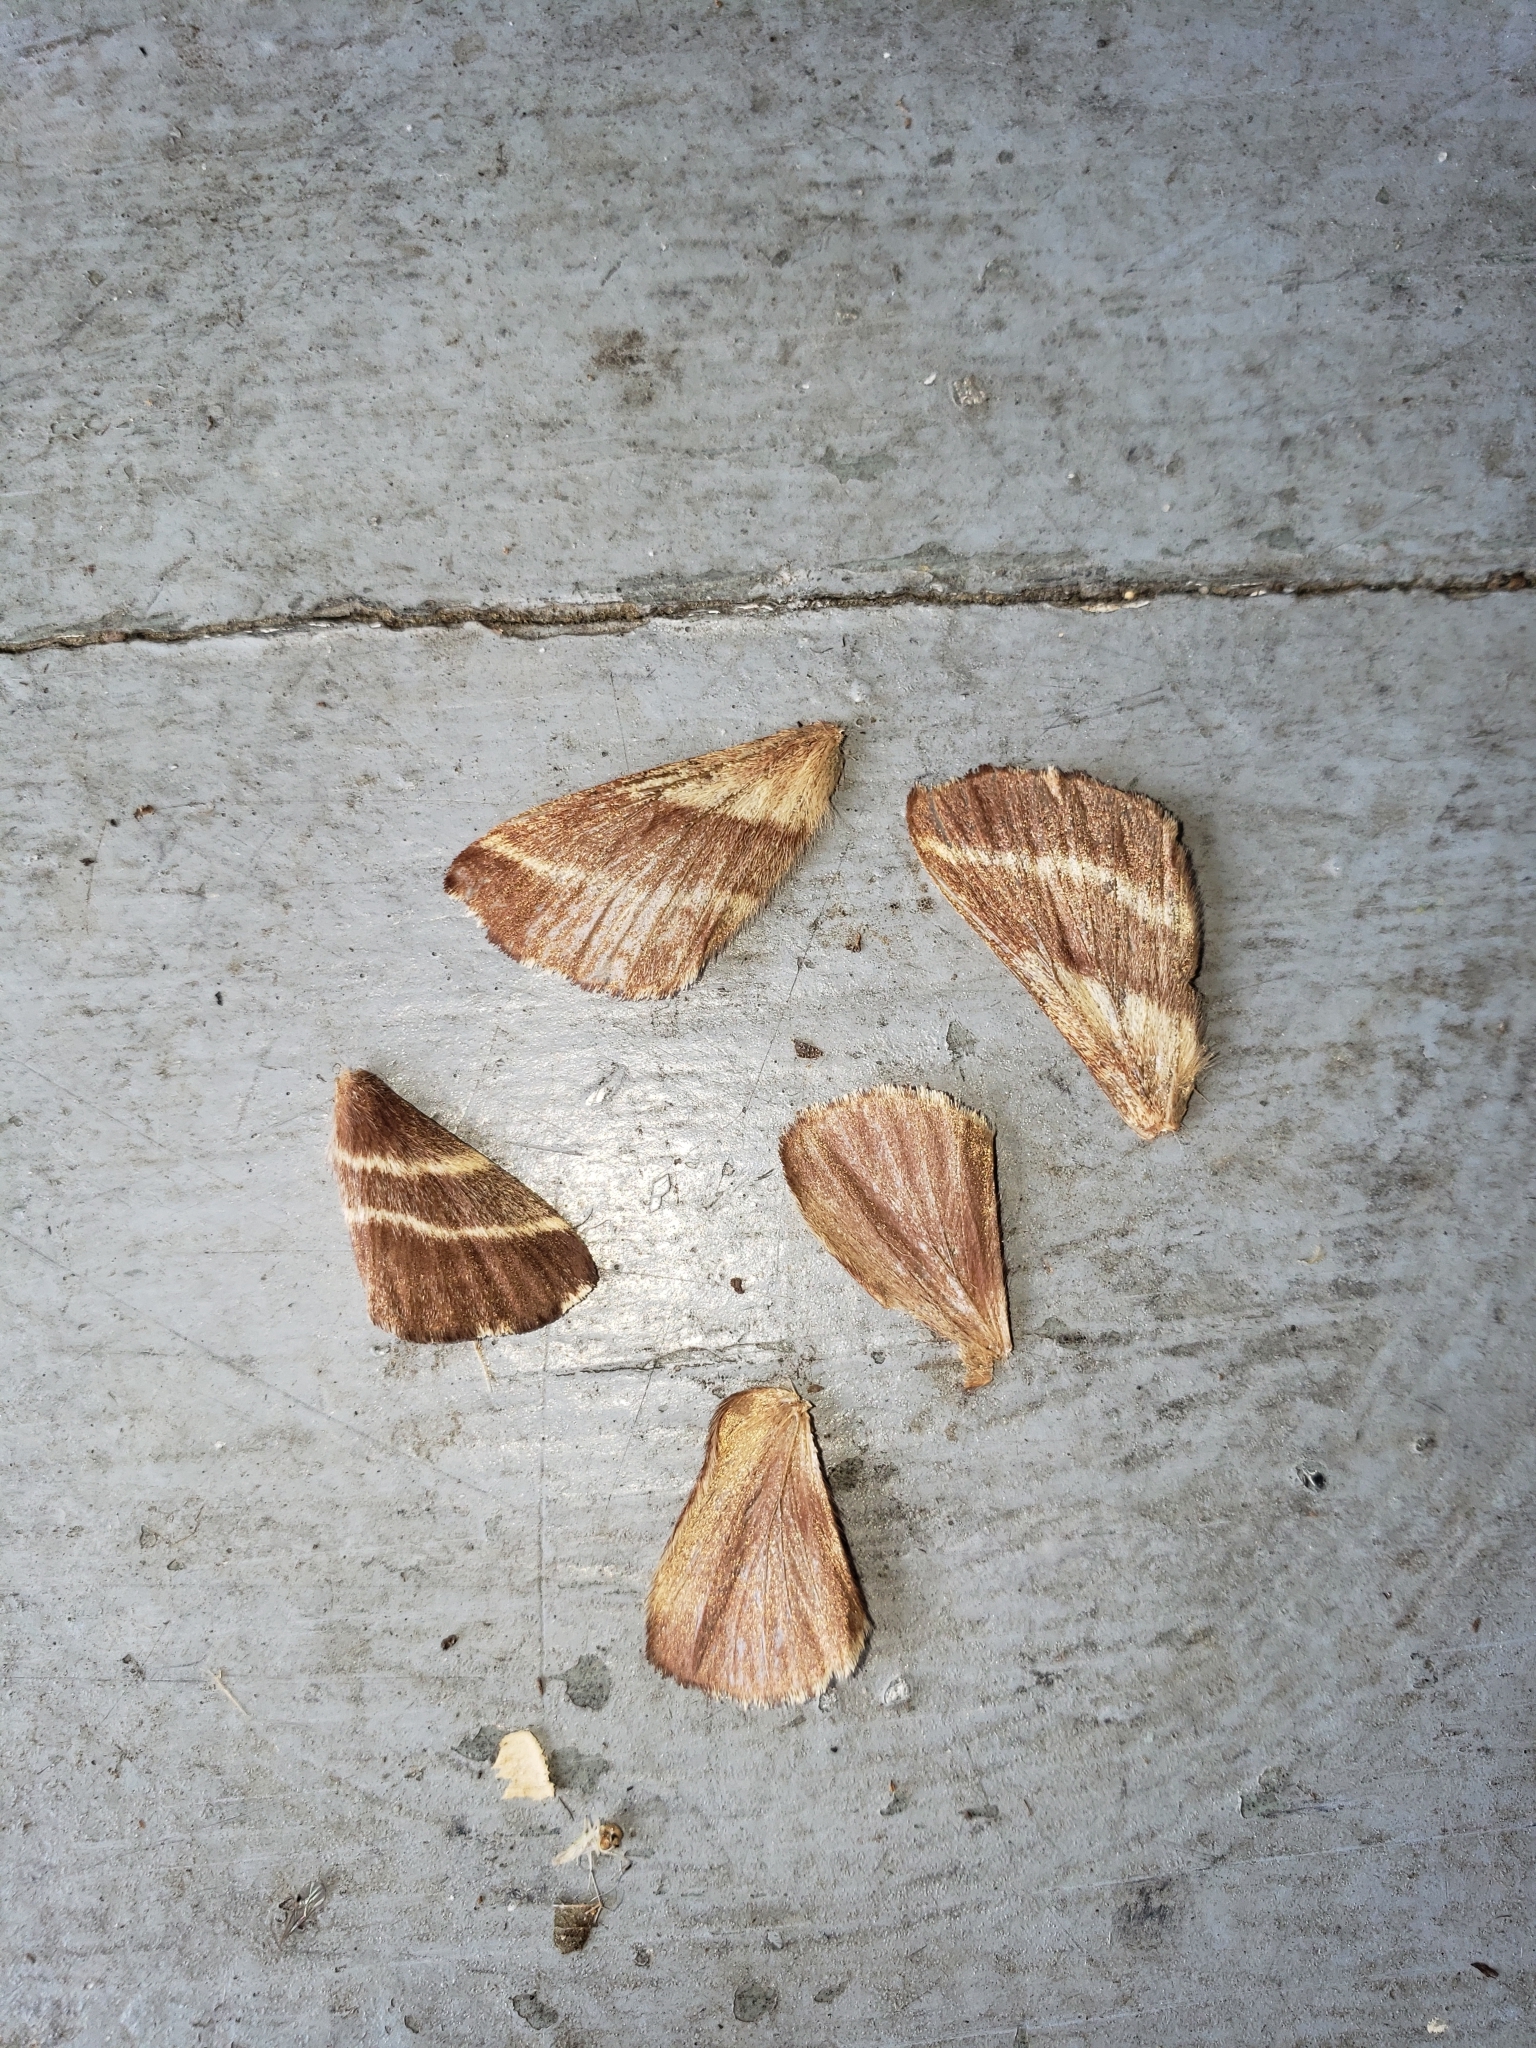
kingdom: Animalia
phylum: Arthropoda
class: Insecta
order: Lepidoptera
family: Lasiocampidae
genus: Malacosoma
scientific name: Malacosoma americana
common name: Eastern tent caterpillar moth
